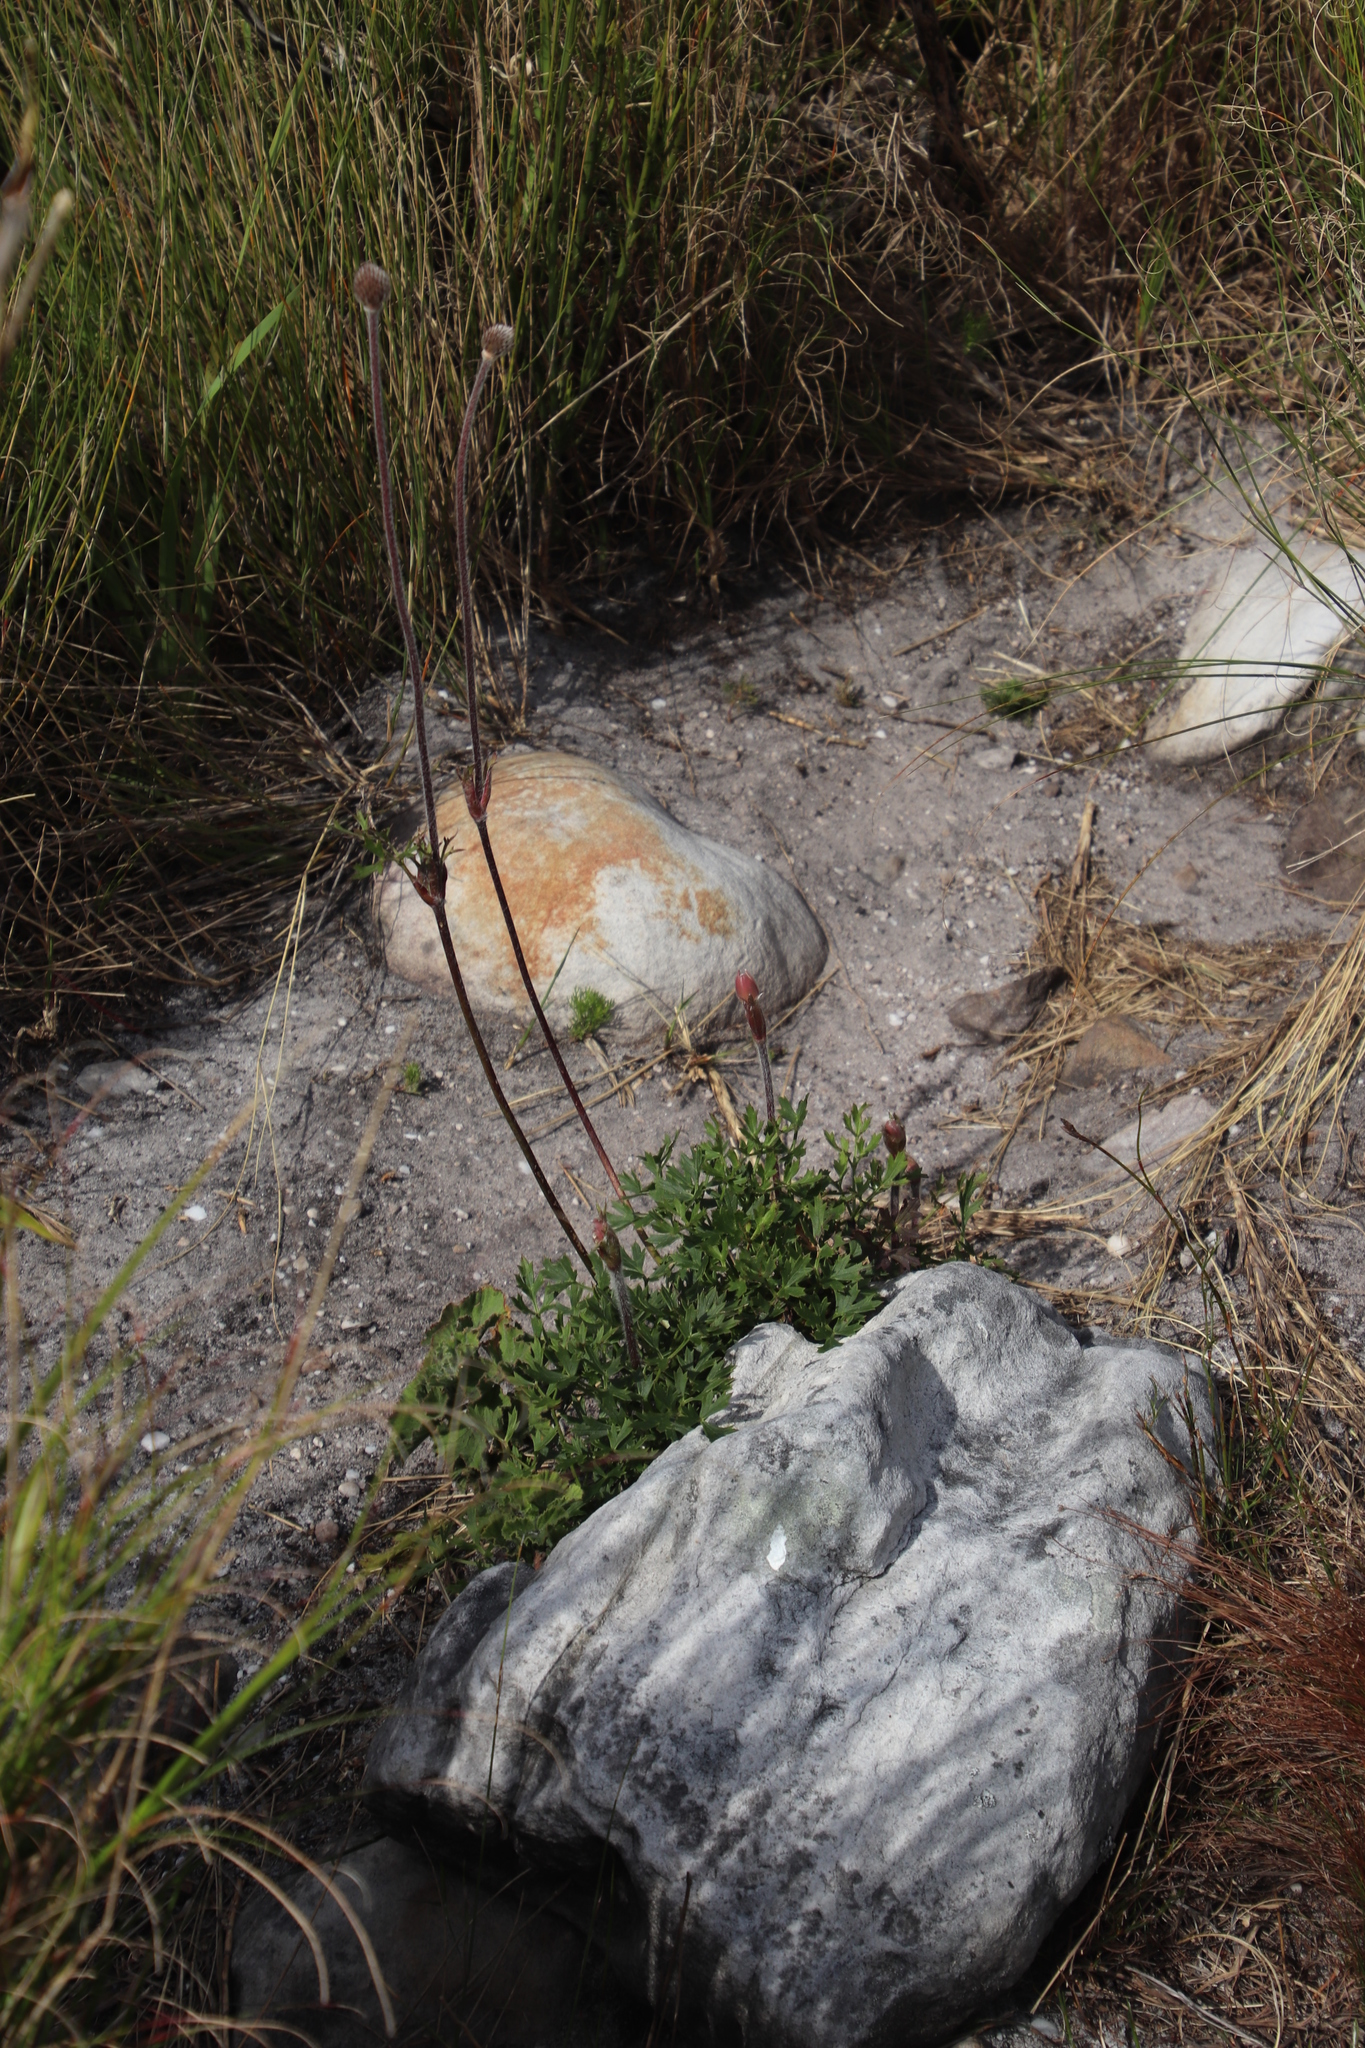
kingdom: Plantae
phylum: Tracheophyta
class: Magnoliopsida
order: Ranunculales
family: Ranunculaceae
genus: Knowltonia
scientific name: Knowltonia tenuifolia
